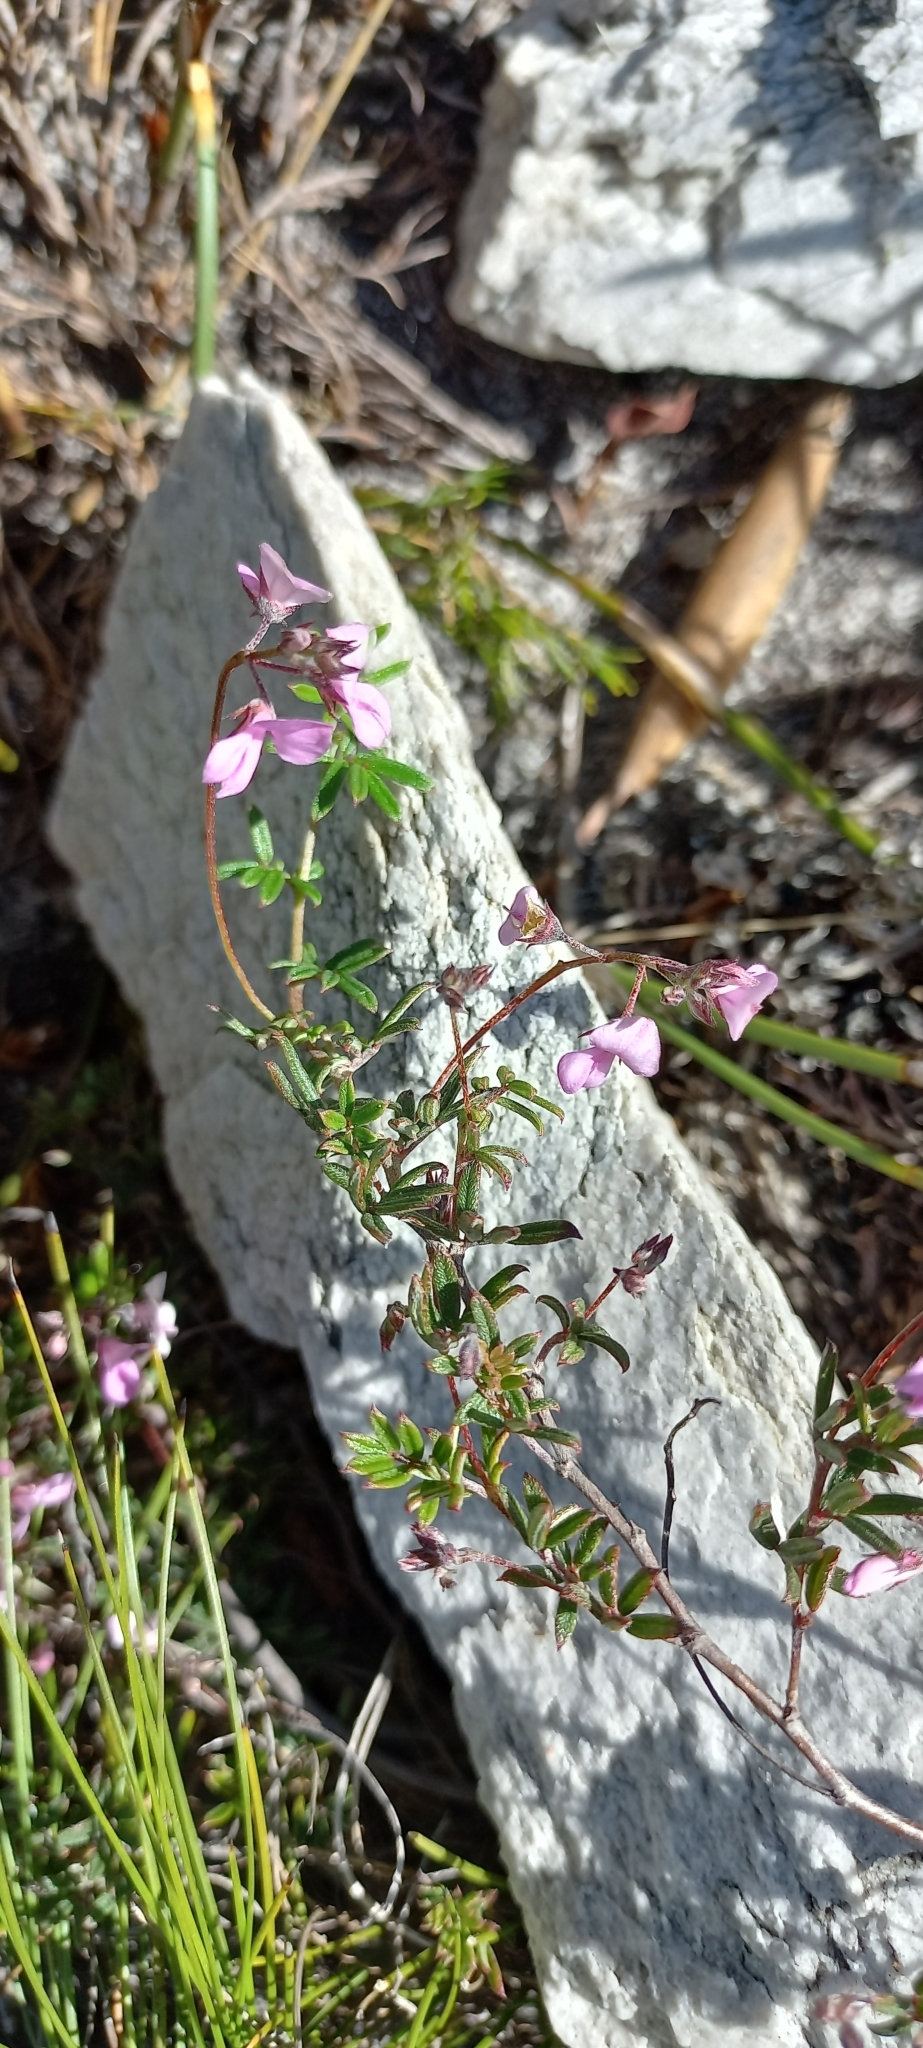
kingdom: Plantae
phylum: Tracheophyta
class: Magnoliopsida
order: Fabales
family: Fabaceae
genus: Indigofera
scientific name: Indigofera angustifolia
